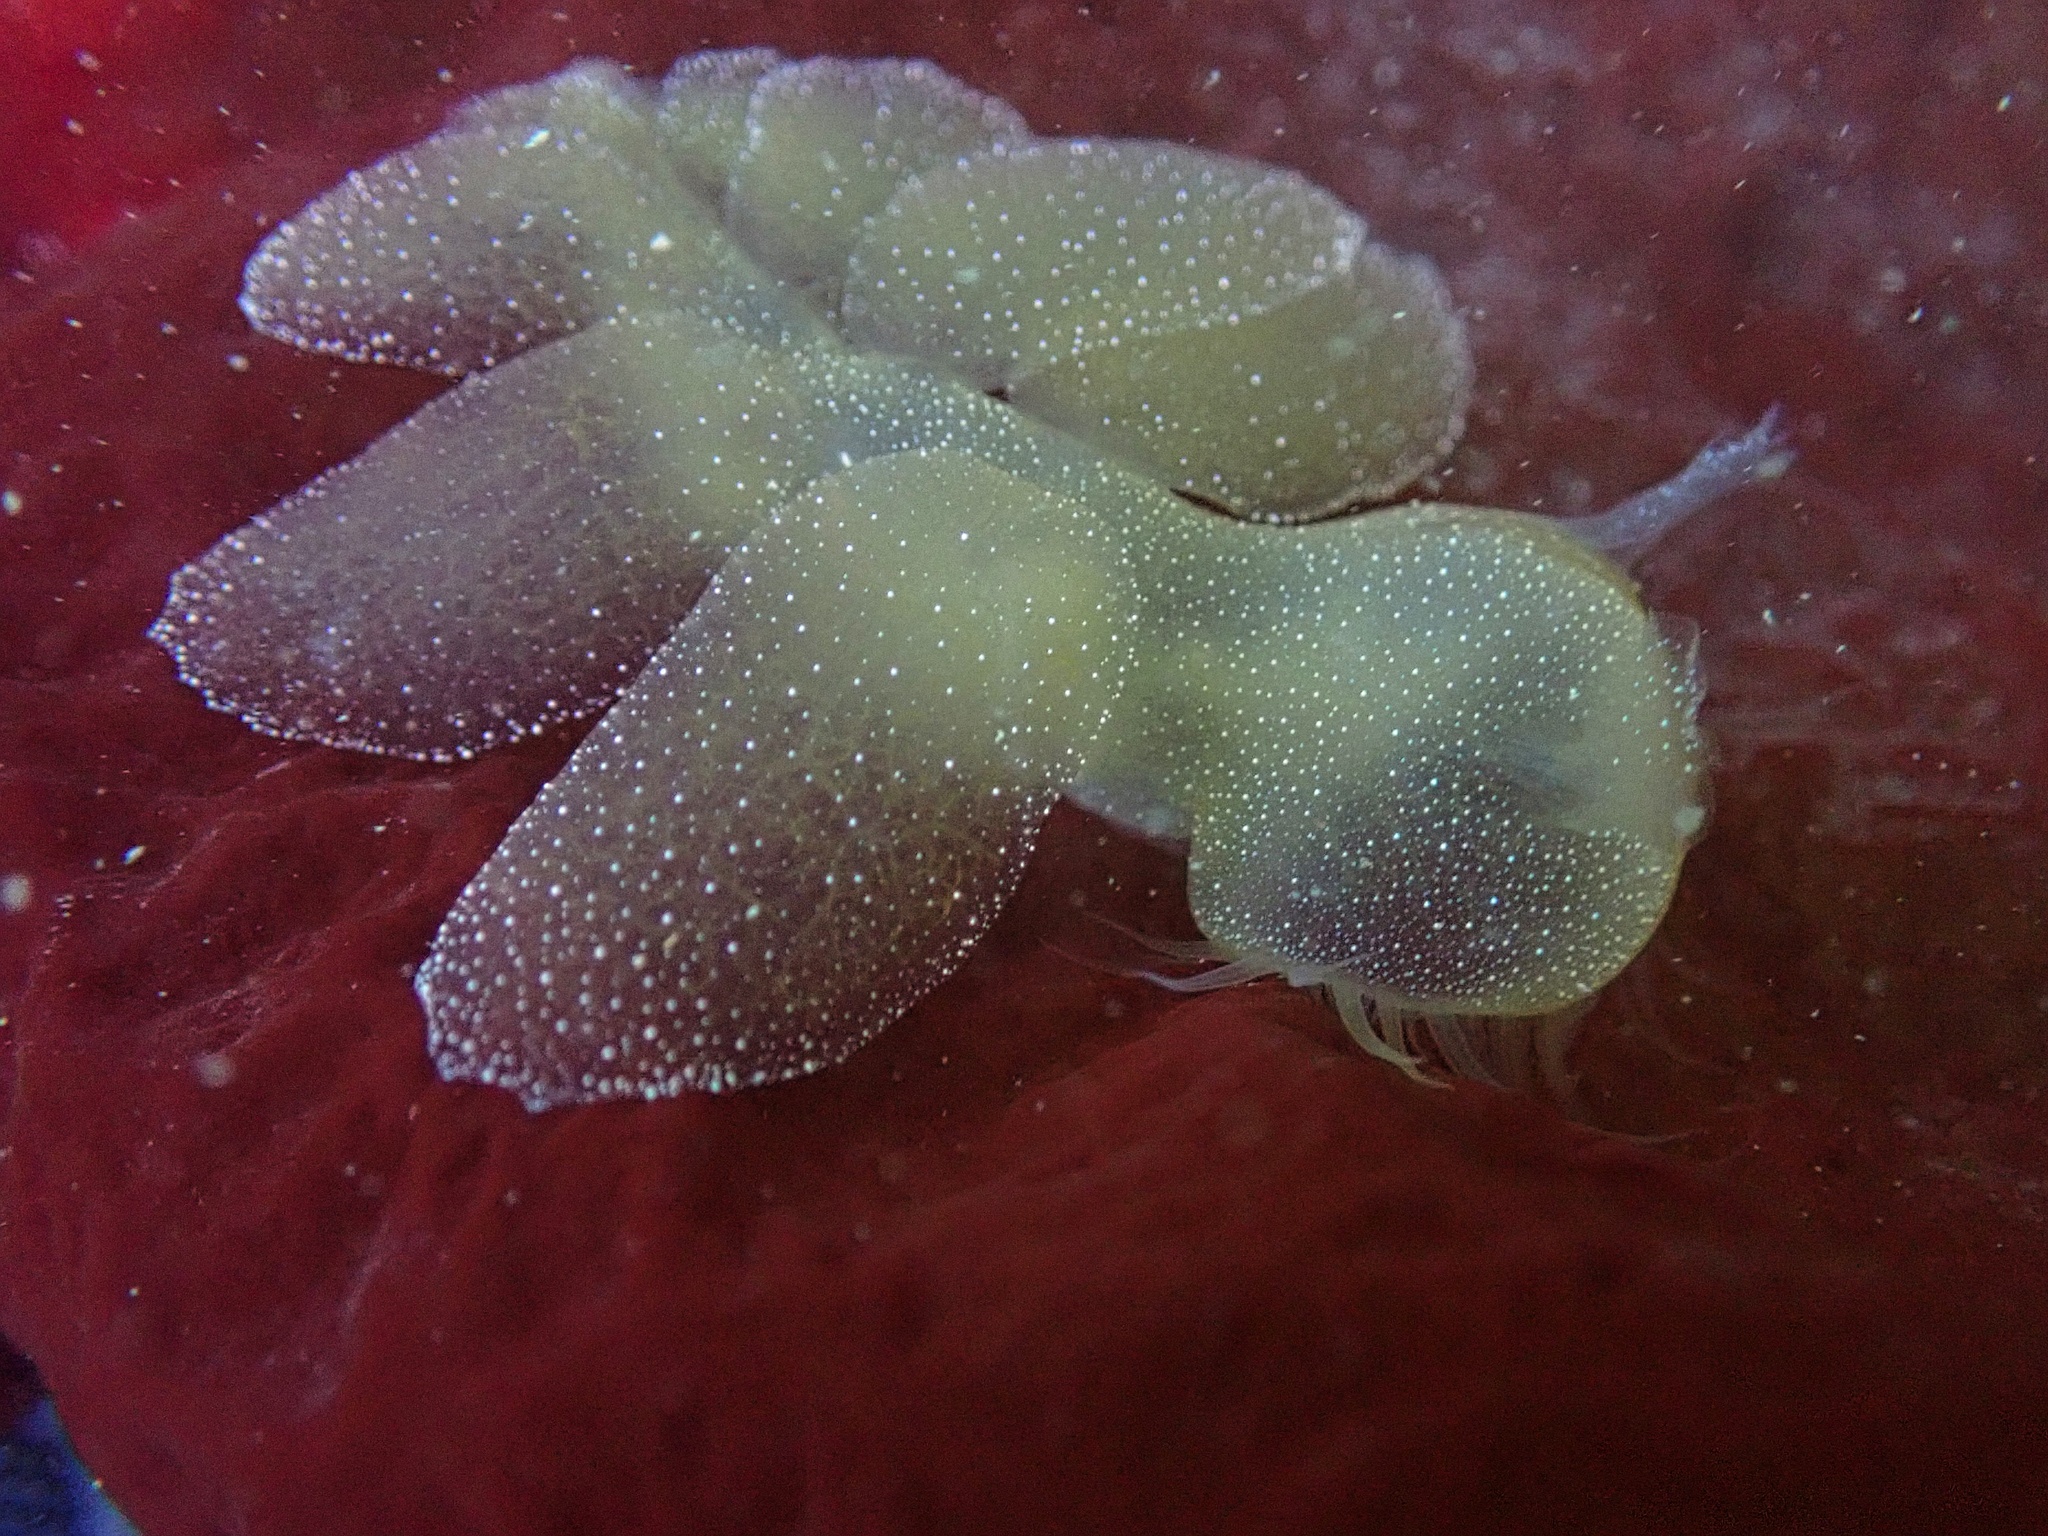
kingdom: Animalia
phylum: Mollusca
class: Gastropoda
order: Nudibranchia
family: Tethydidae
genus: Melibe
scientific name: Melibe leonina
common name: Lion nudibranch
